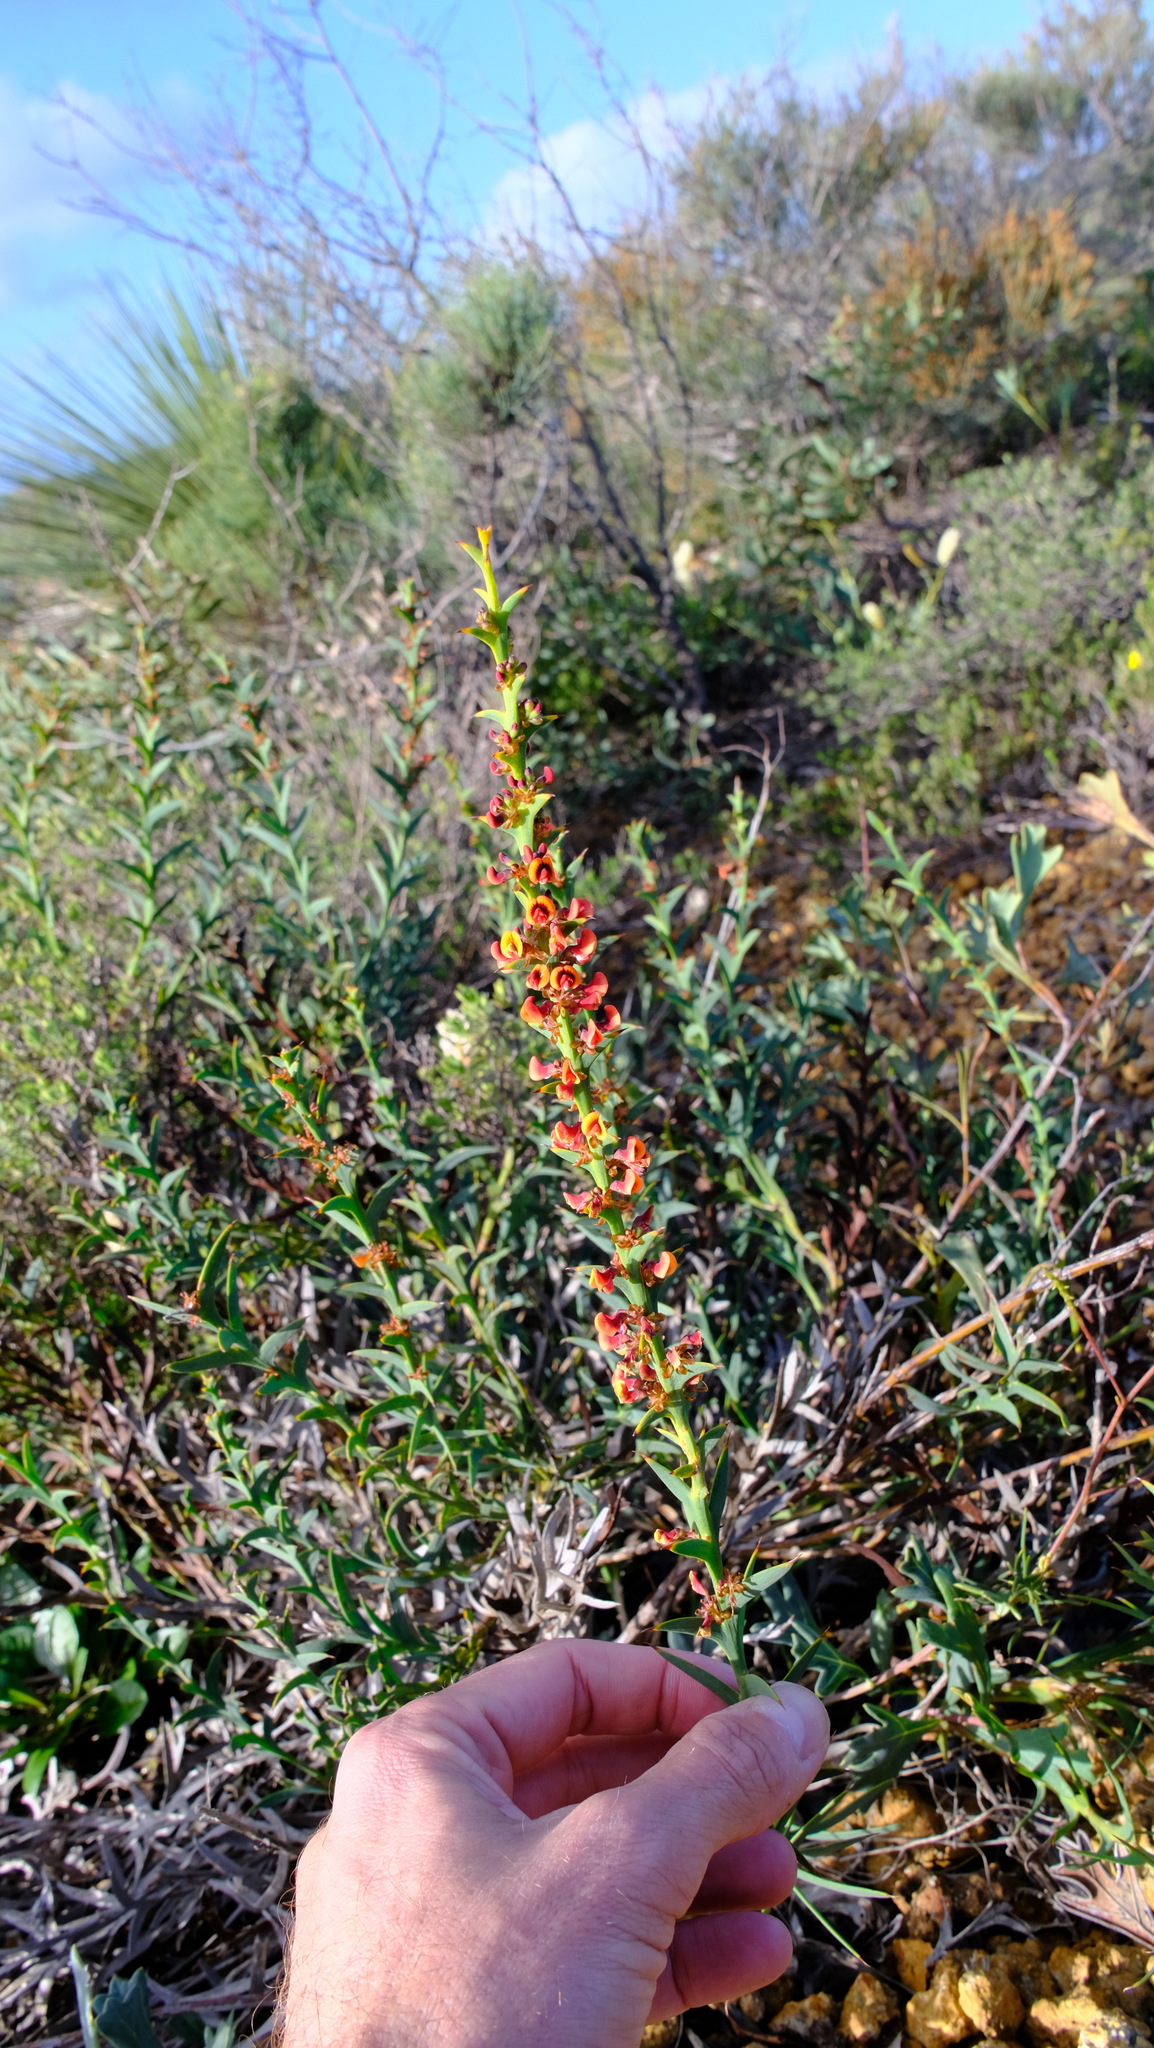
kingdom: Plantae
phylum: Tracheophyta
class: Magnoliopsida
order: Fabales
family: Fabaceae
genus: Daviesia
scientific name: Daviesia decurrens
